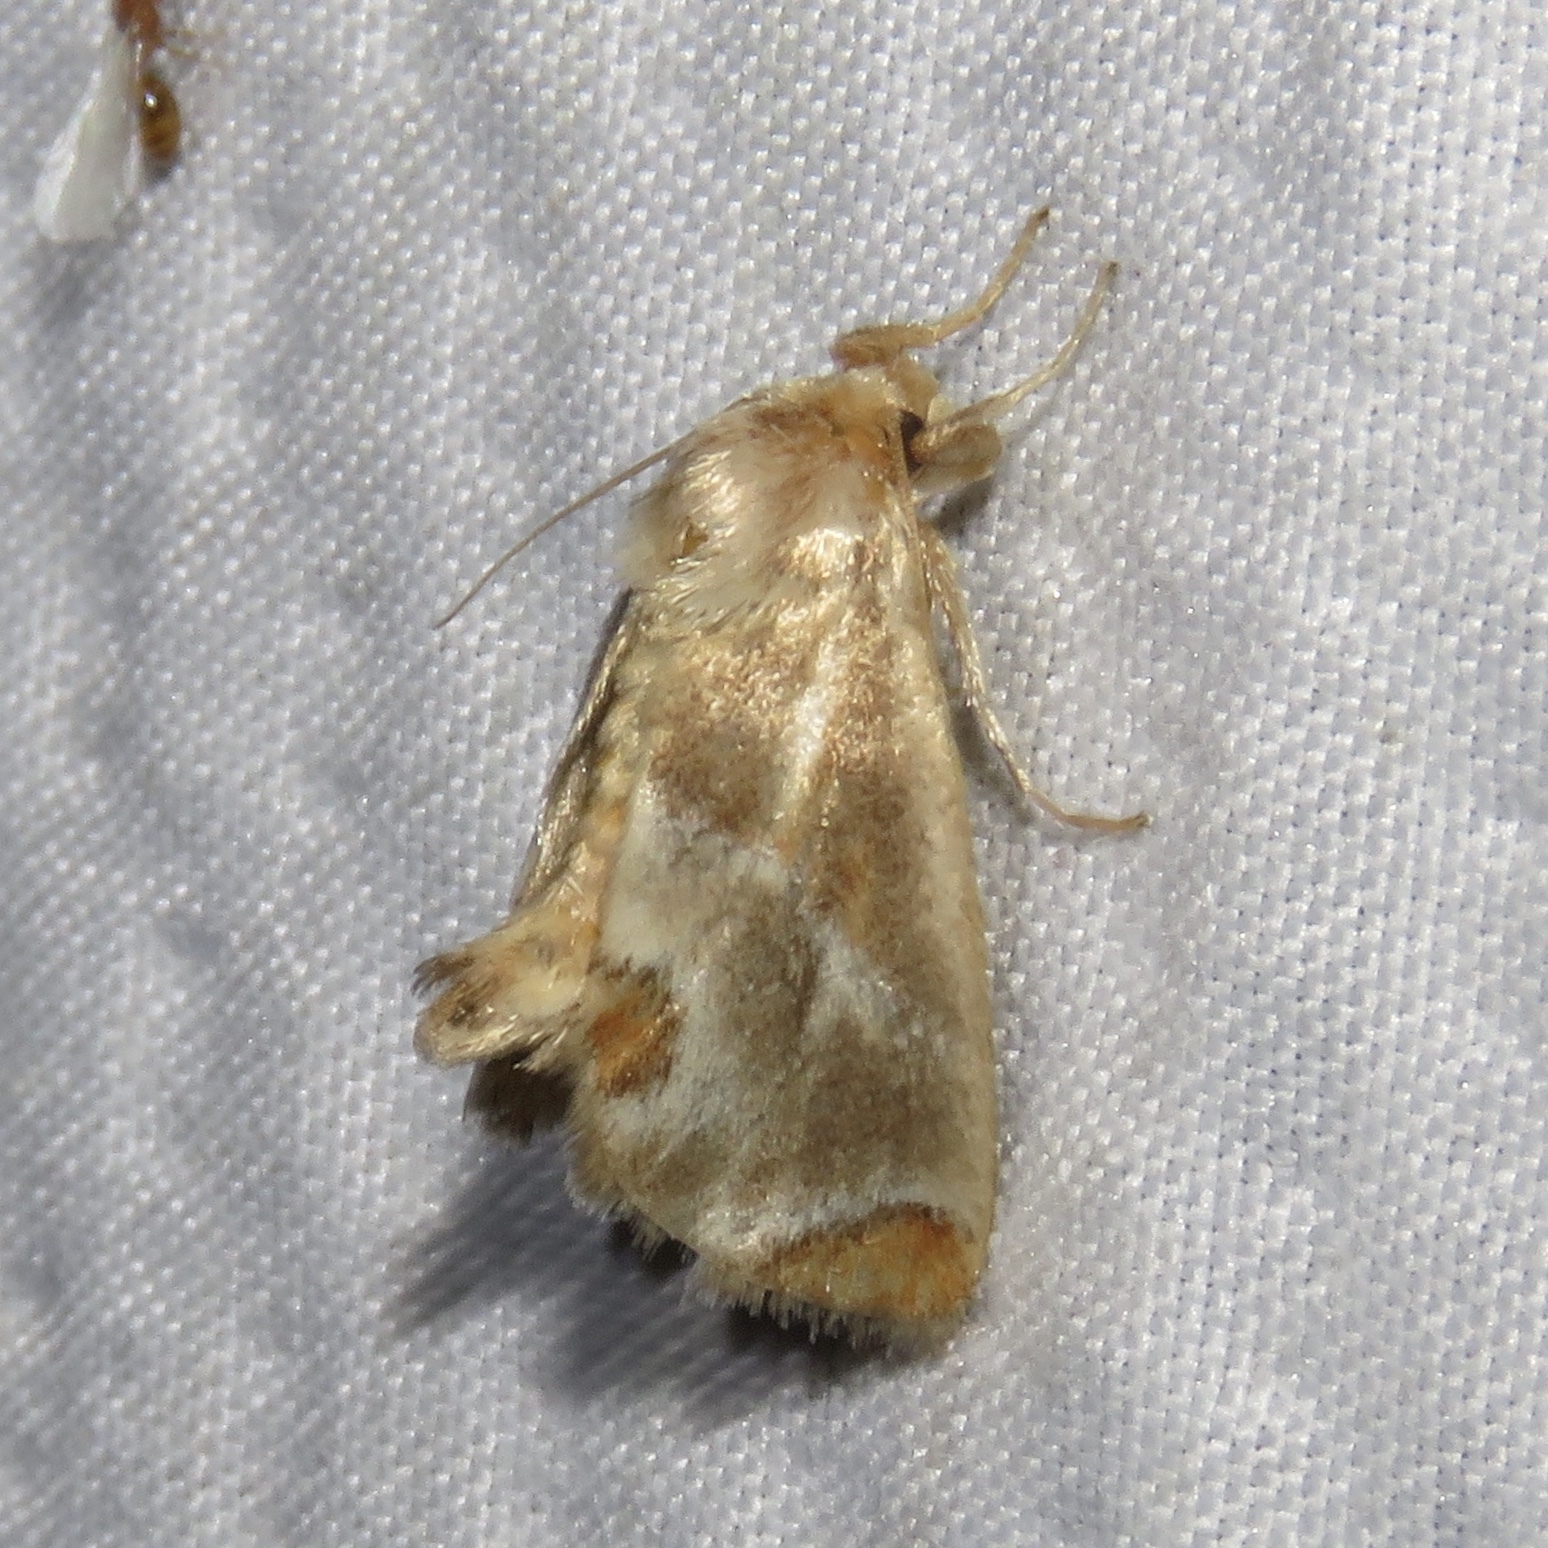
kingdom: Animalia
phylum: Arthropoda
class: Insecta
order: Lepidoptera
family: Limacodidae
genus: Apoda
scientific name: Apoda biguttata
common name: Shagreened slug moth
